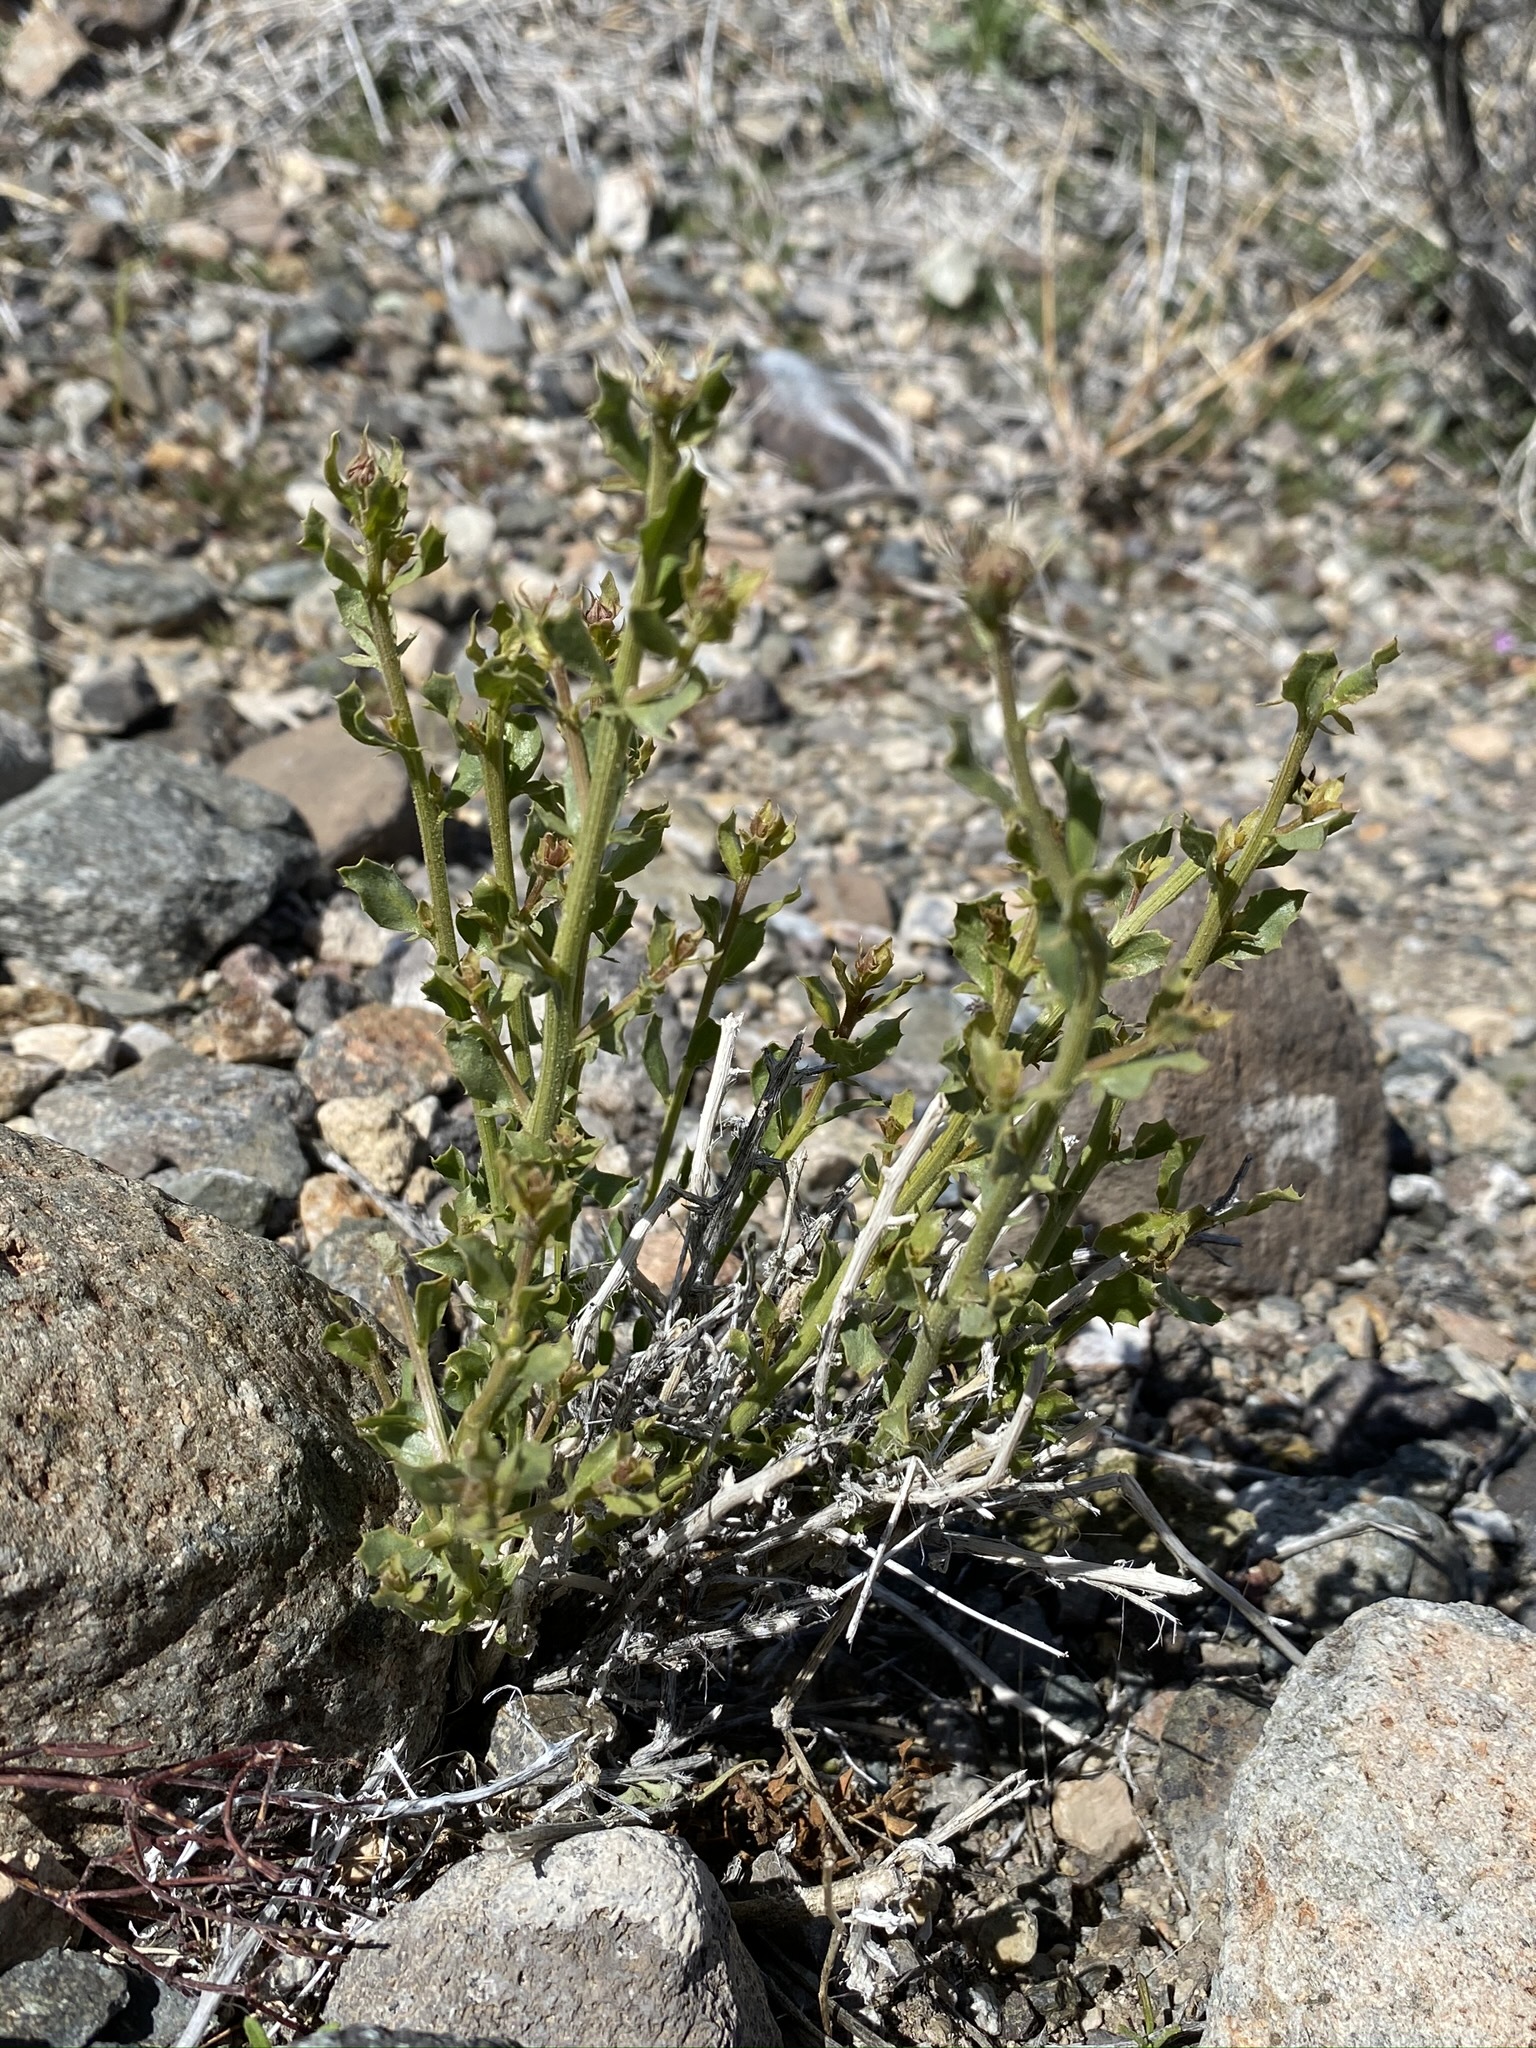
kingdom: Plantae
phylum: Tracheophyta
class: Magnoliopsida
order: Asterales
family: Asteraceae
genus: Adenophyllum
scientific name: Adenophyllum cooperi
